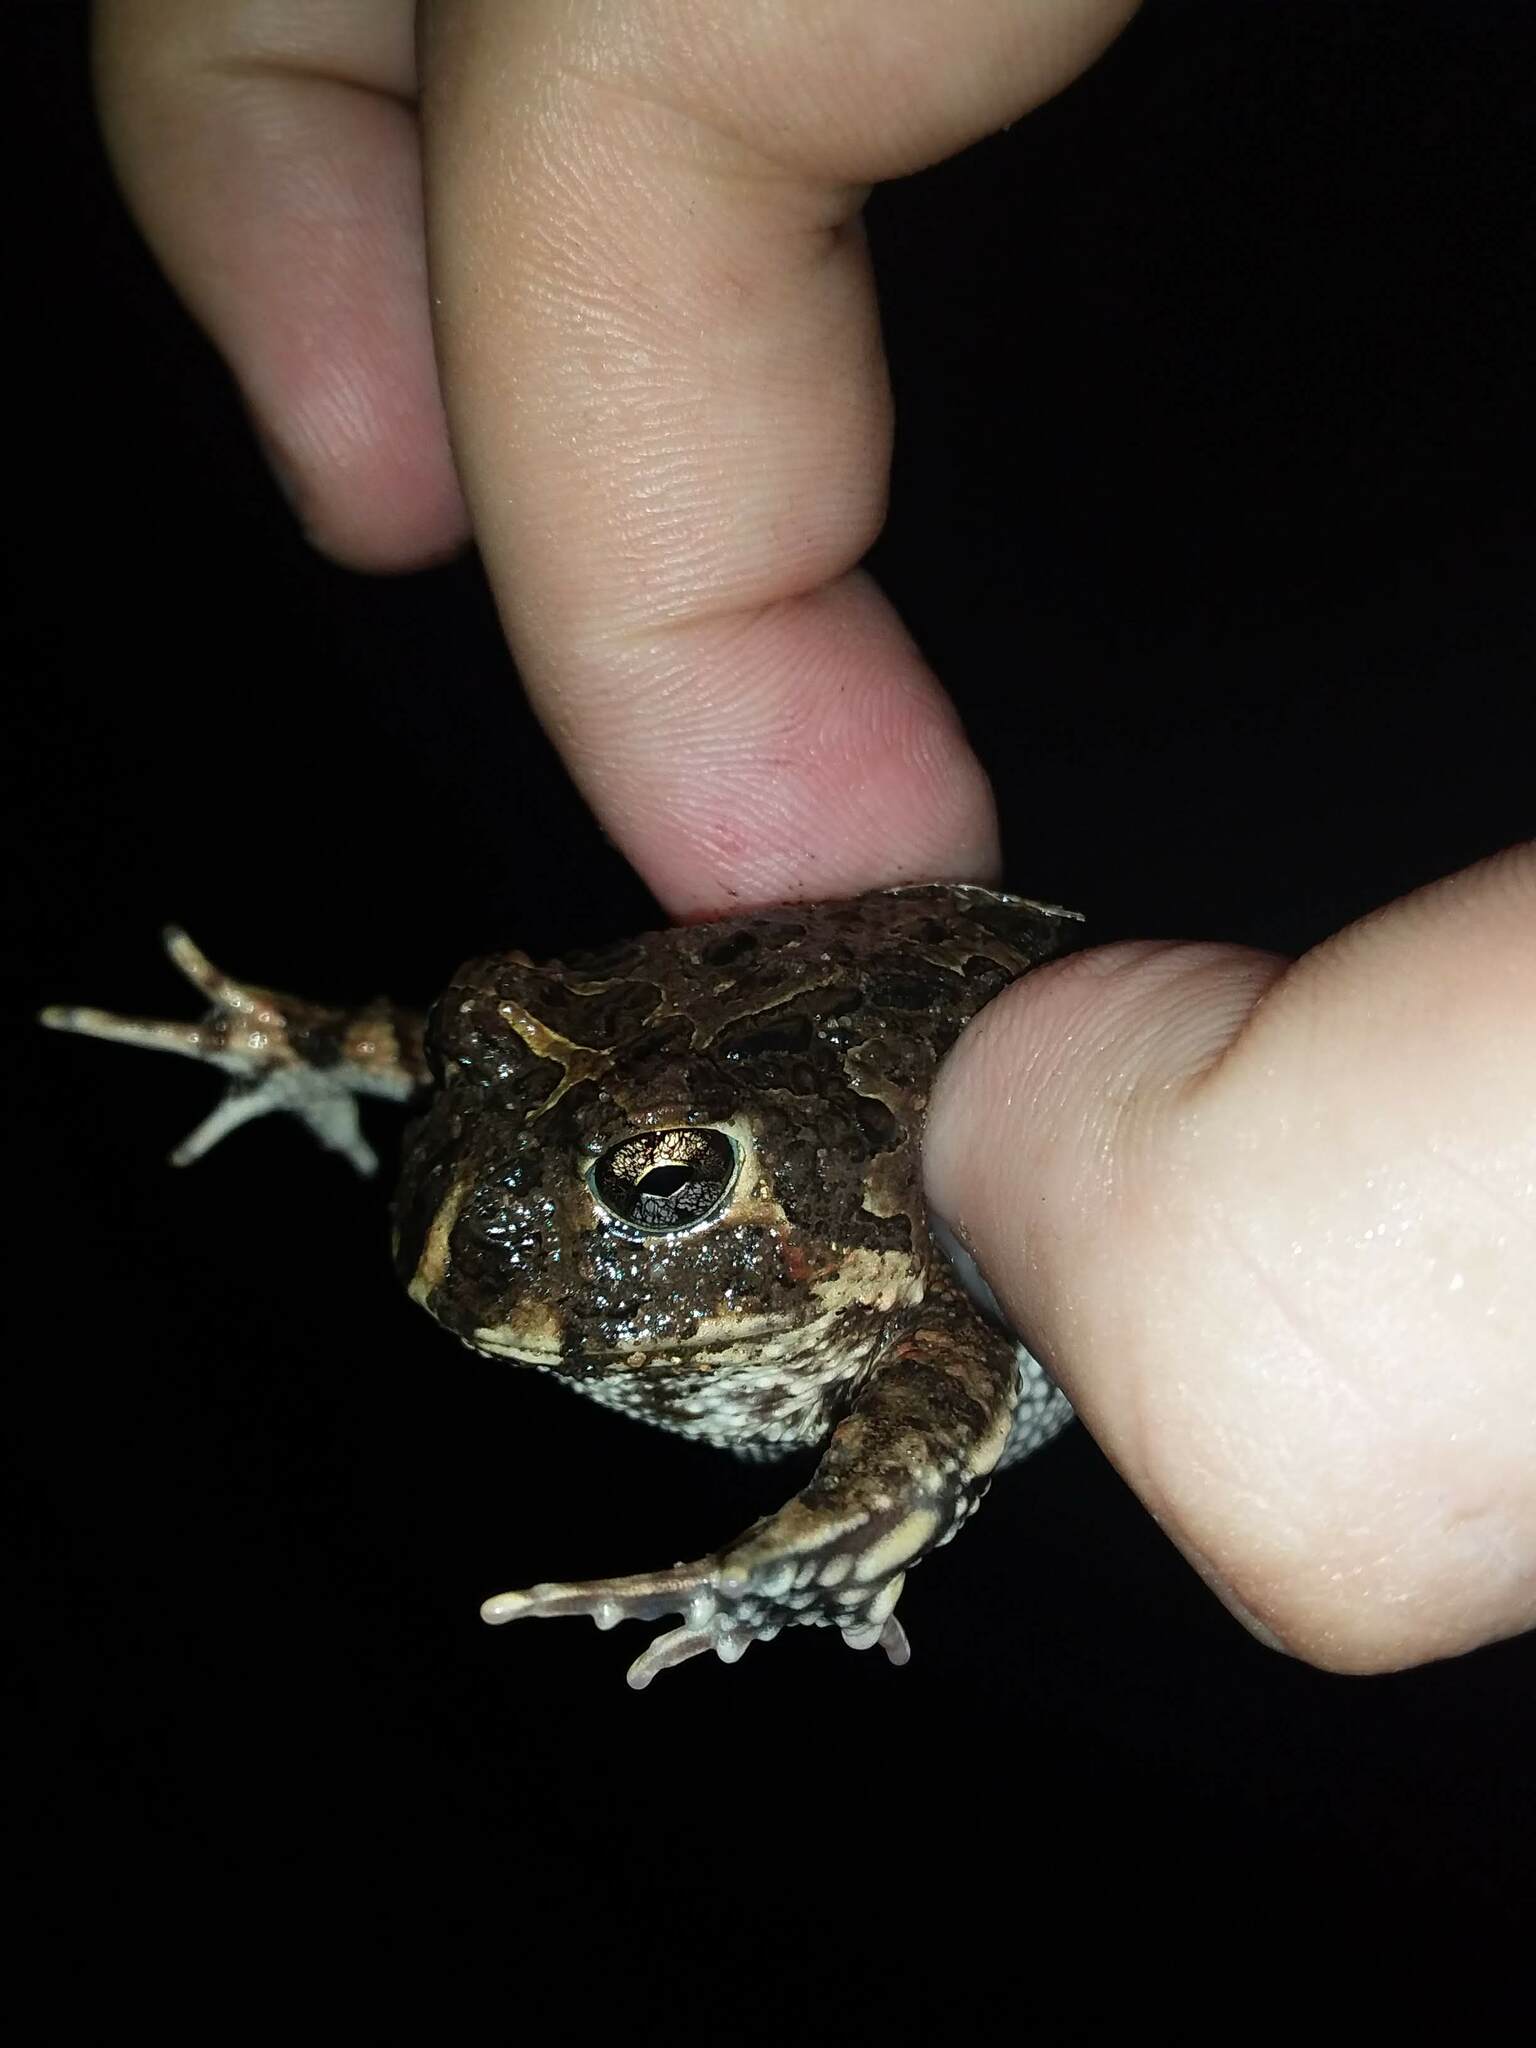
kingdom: Animalia
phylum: Chordata
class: Amphibia
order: Anura
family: Odontophrynidae
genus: Odontophrynus
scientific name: Odontophrynus
